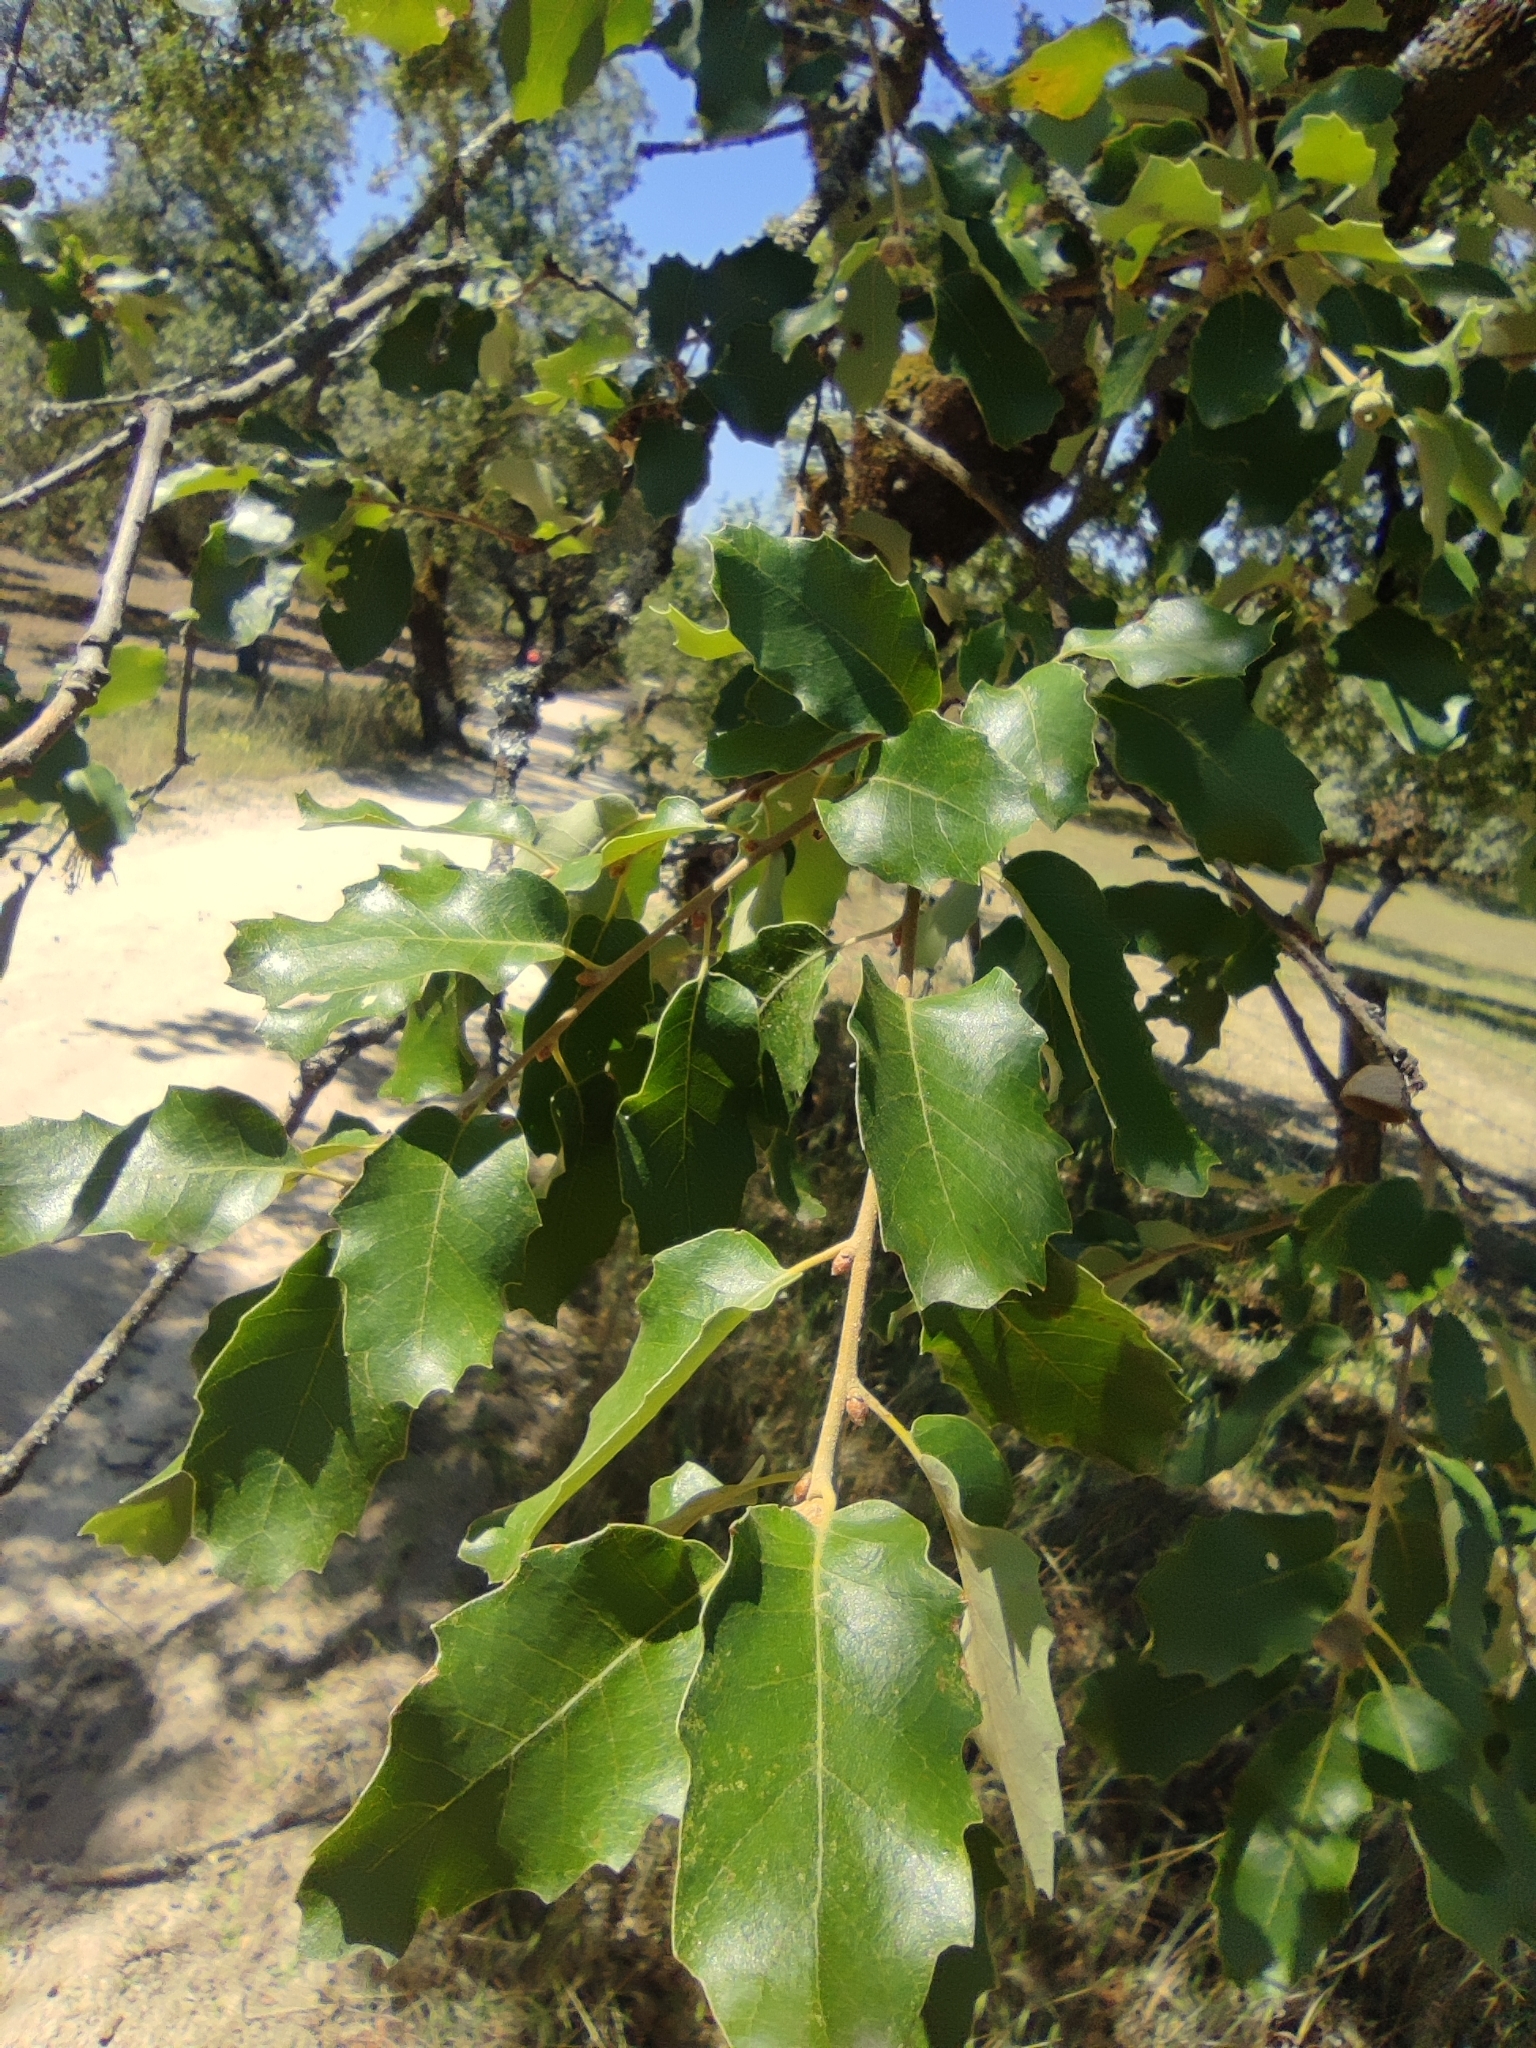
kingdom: Plantae
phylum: Tracheophyta
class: Magnoliopsida
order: Fagales
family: Fagaceae
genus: Quercus
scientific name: Quercus faginea
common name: Gall oak tree
